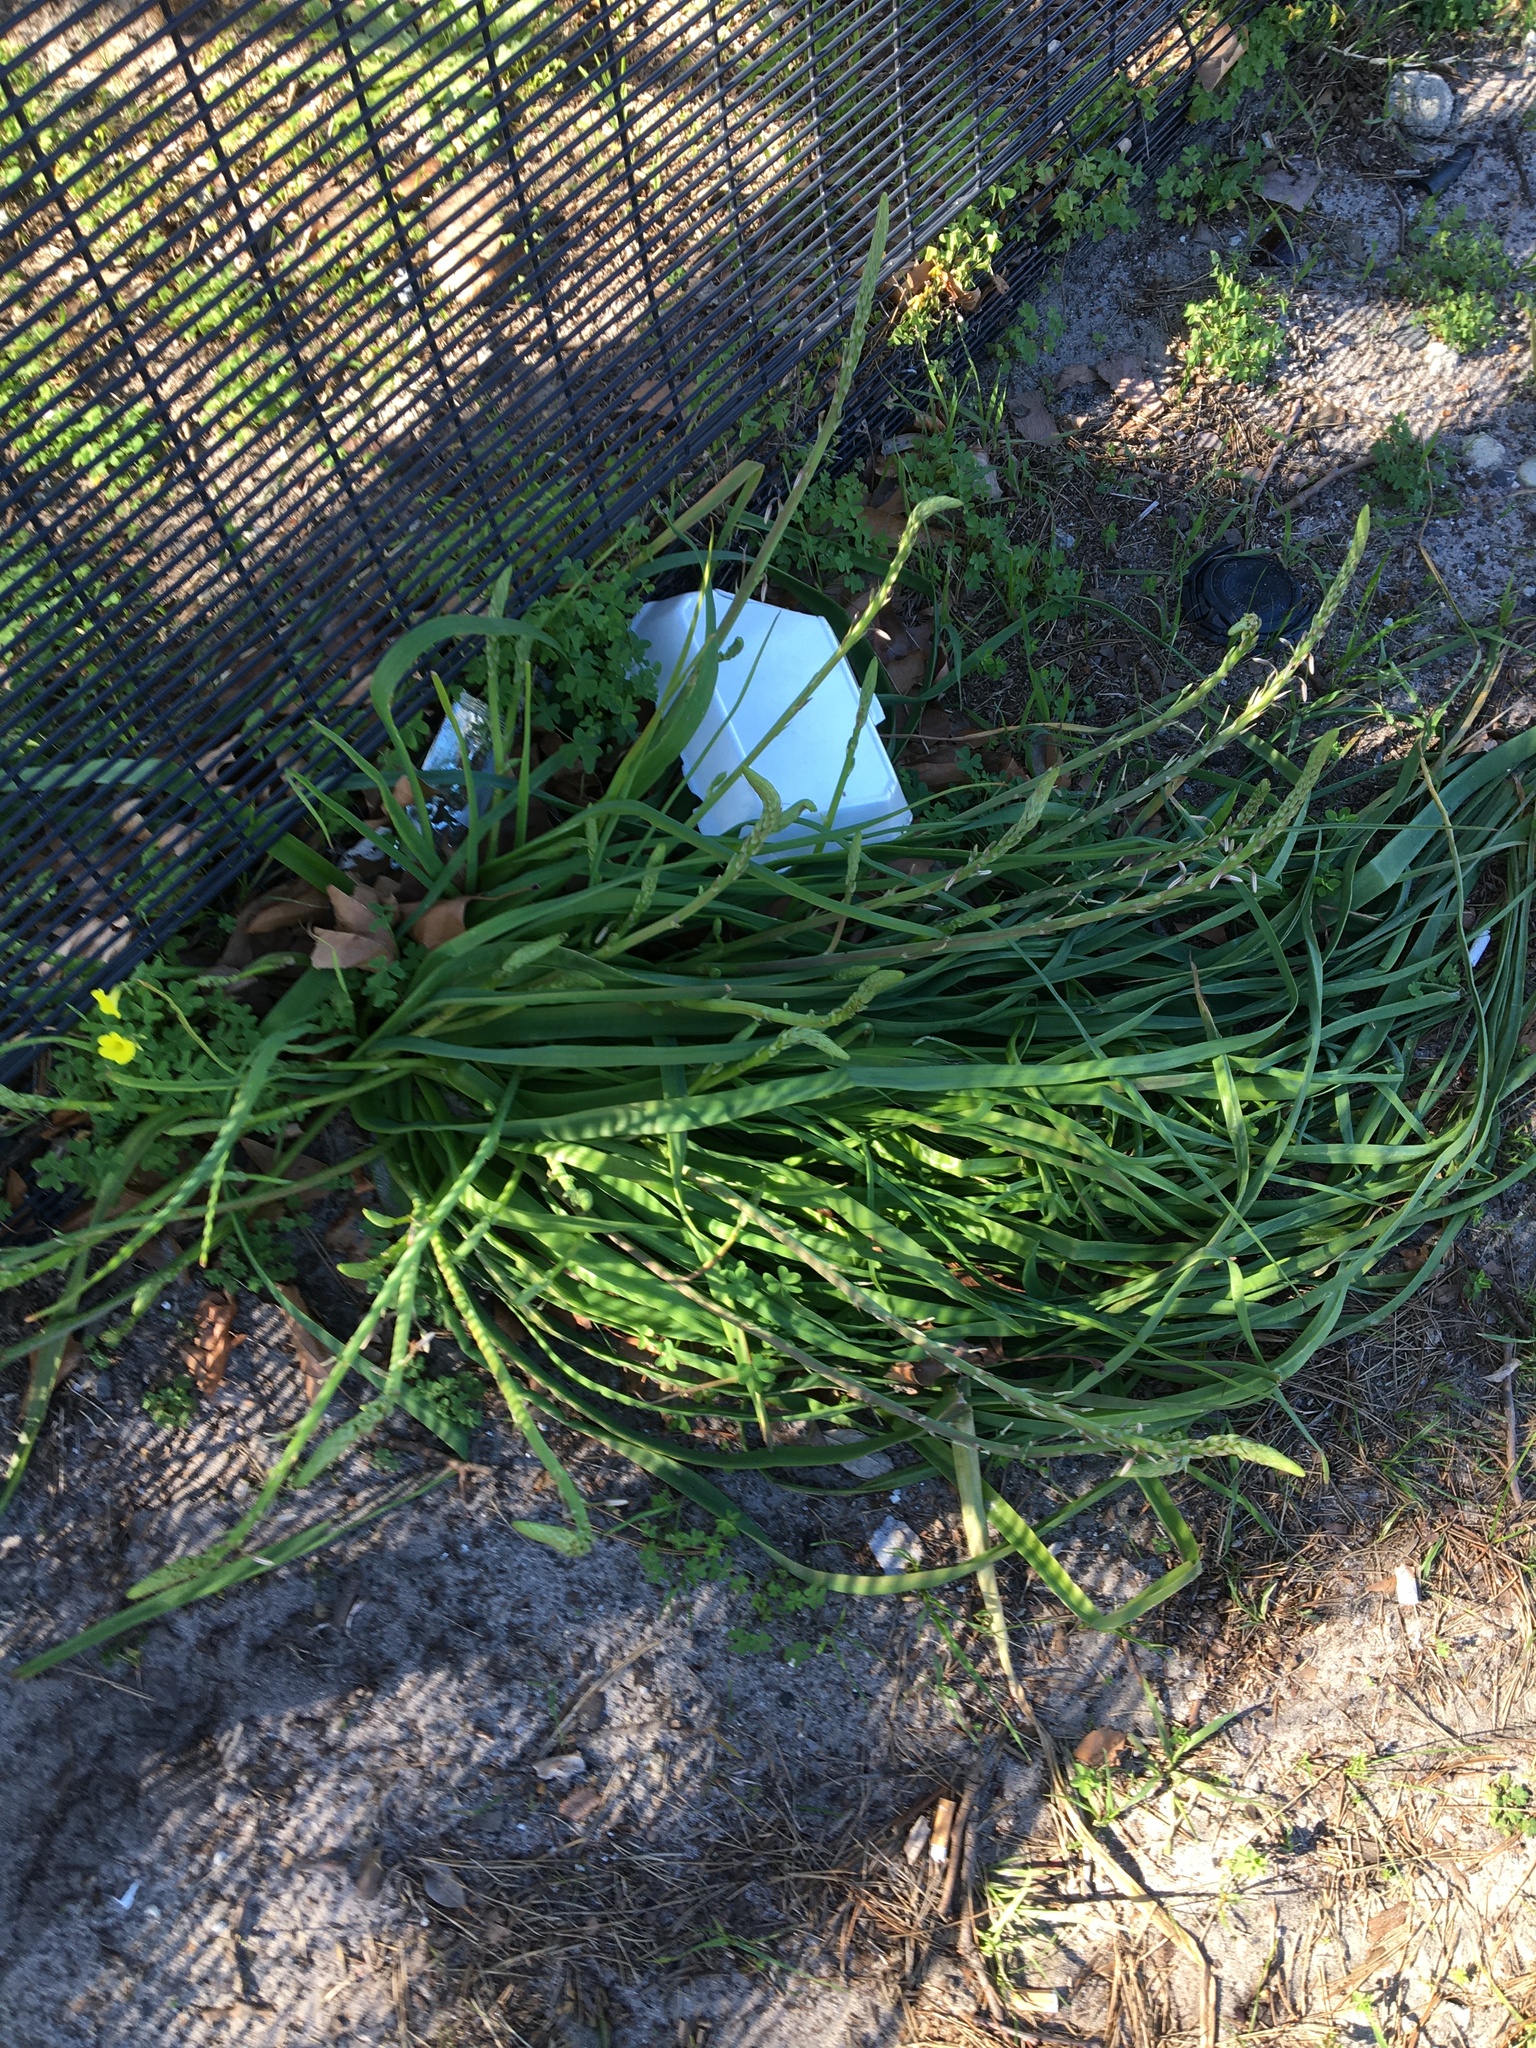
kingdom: Plantae
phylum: Tracheophyta
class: Liliopsida
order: Asparagales
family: Asphodelaceae
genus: Trachyandra
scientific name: Trachyandra divaricata
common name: Dune onionweed
